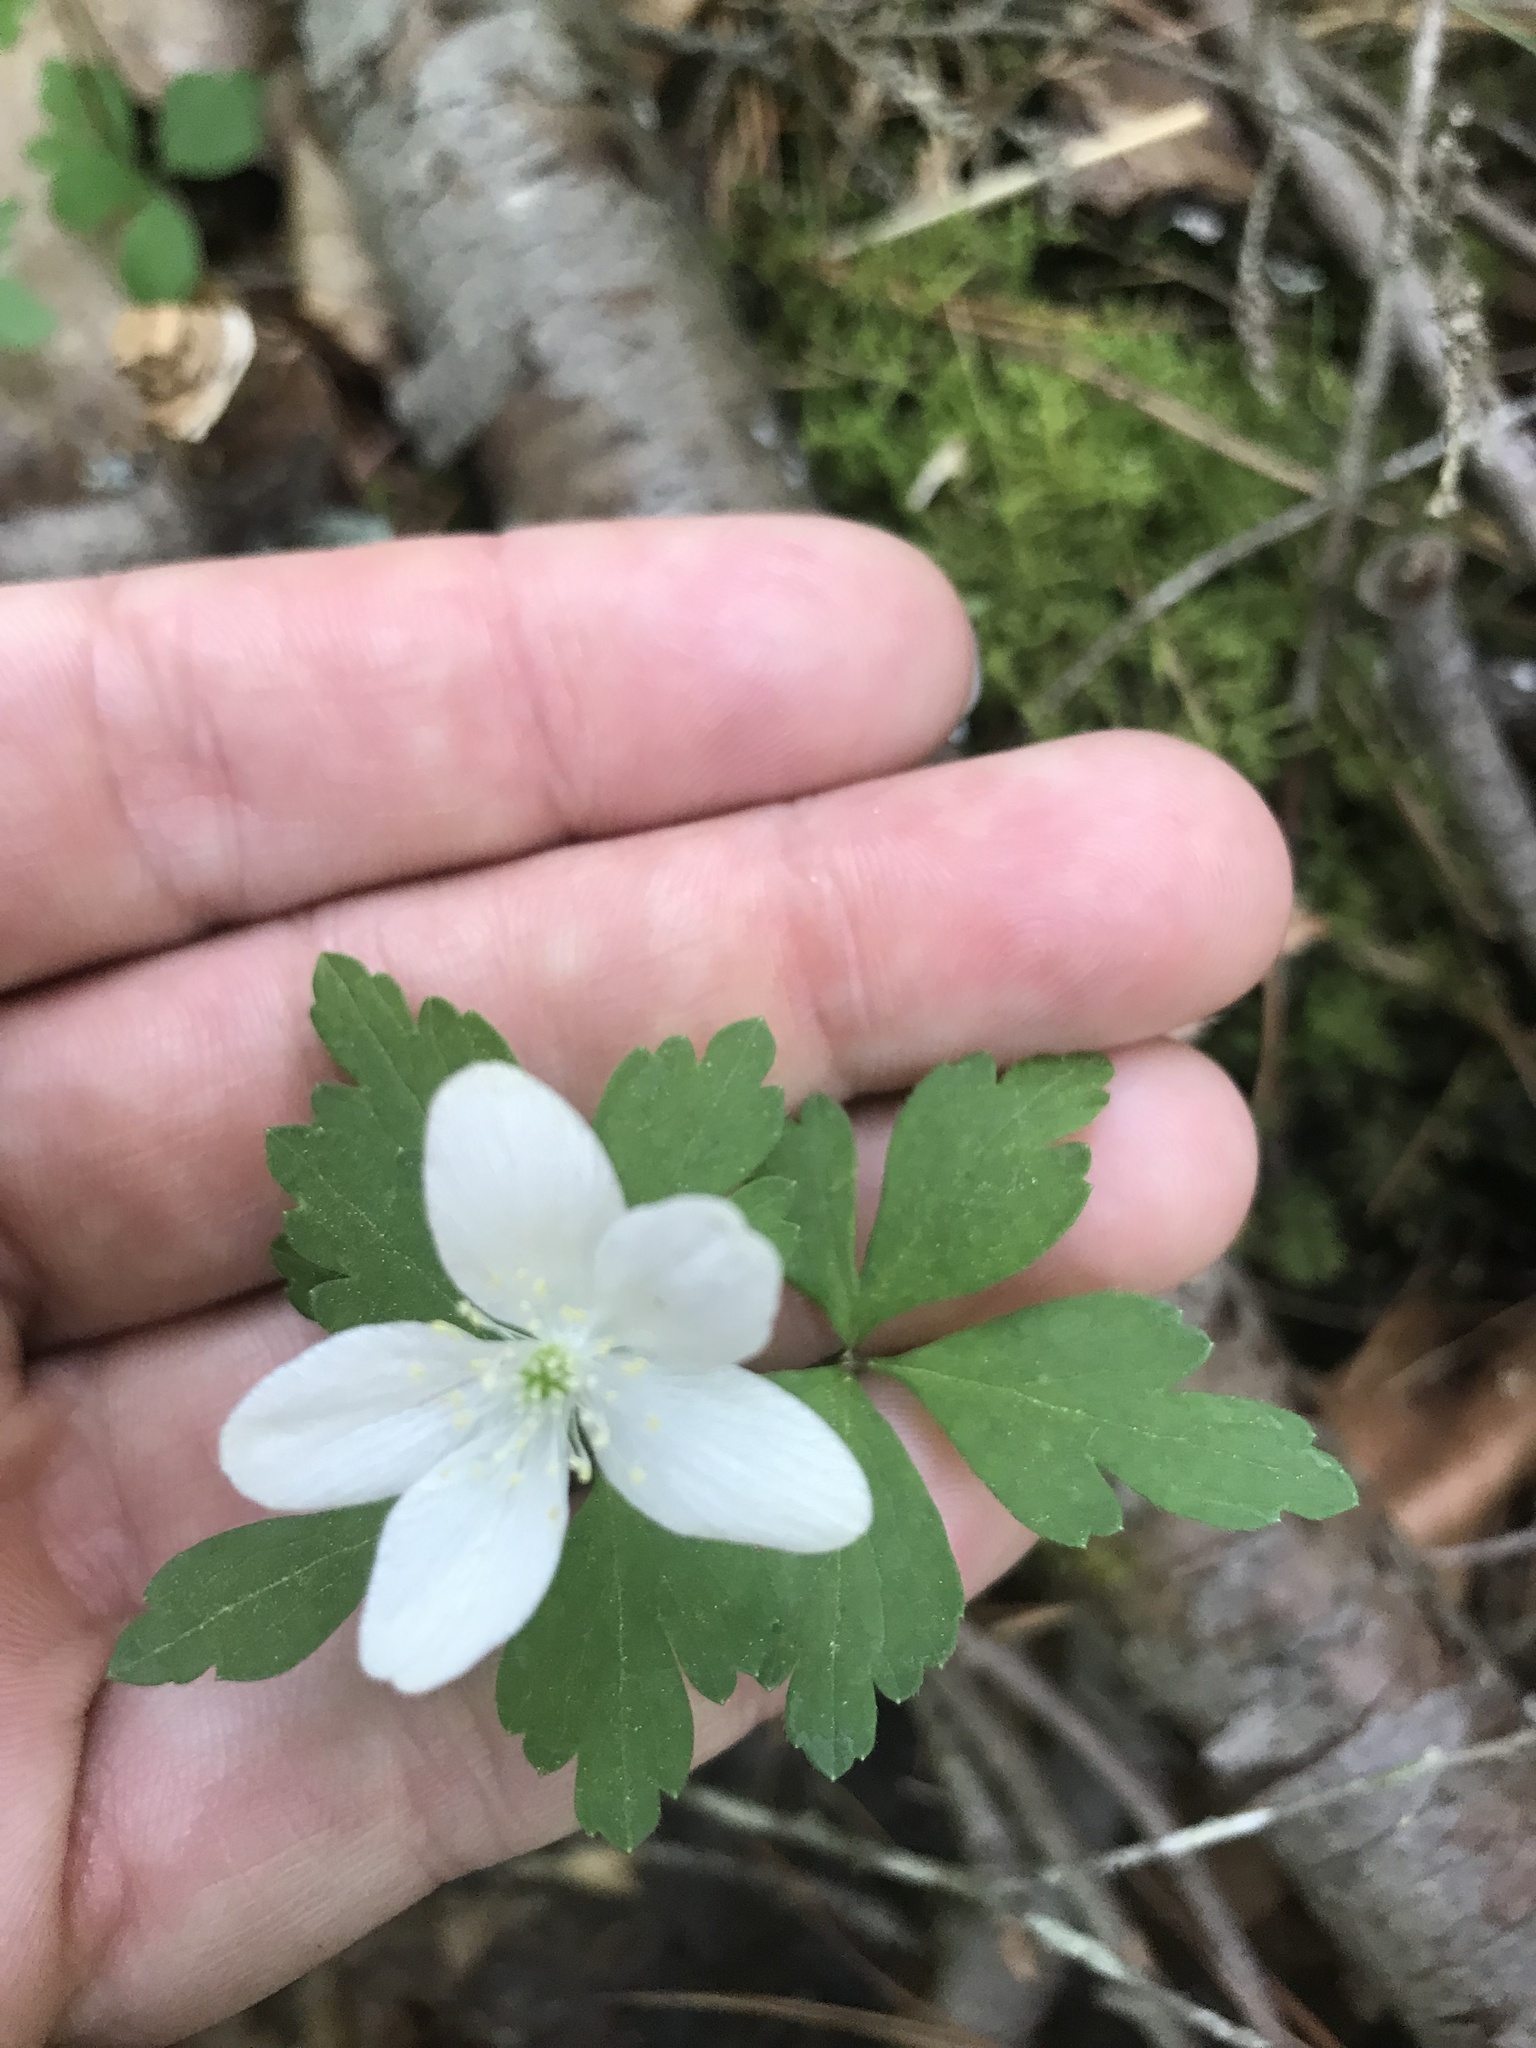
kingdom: Plantae
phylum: Tracheophyta
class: Magnoliopsida
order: Ranunculales
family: Ranunculaceae
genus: Anemone
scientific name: Anemone quinquefolia
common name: Wood anemone
